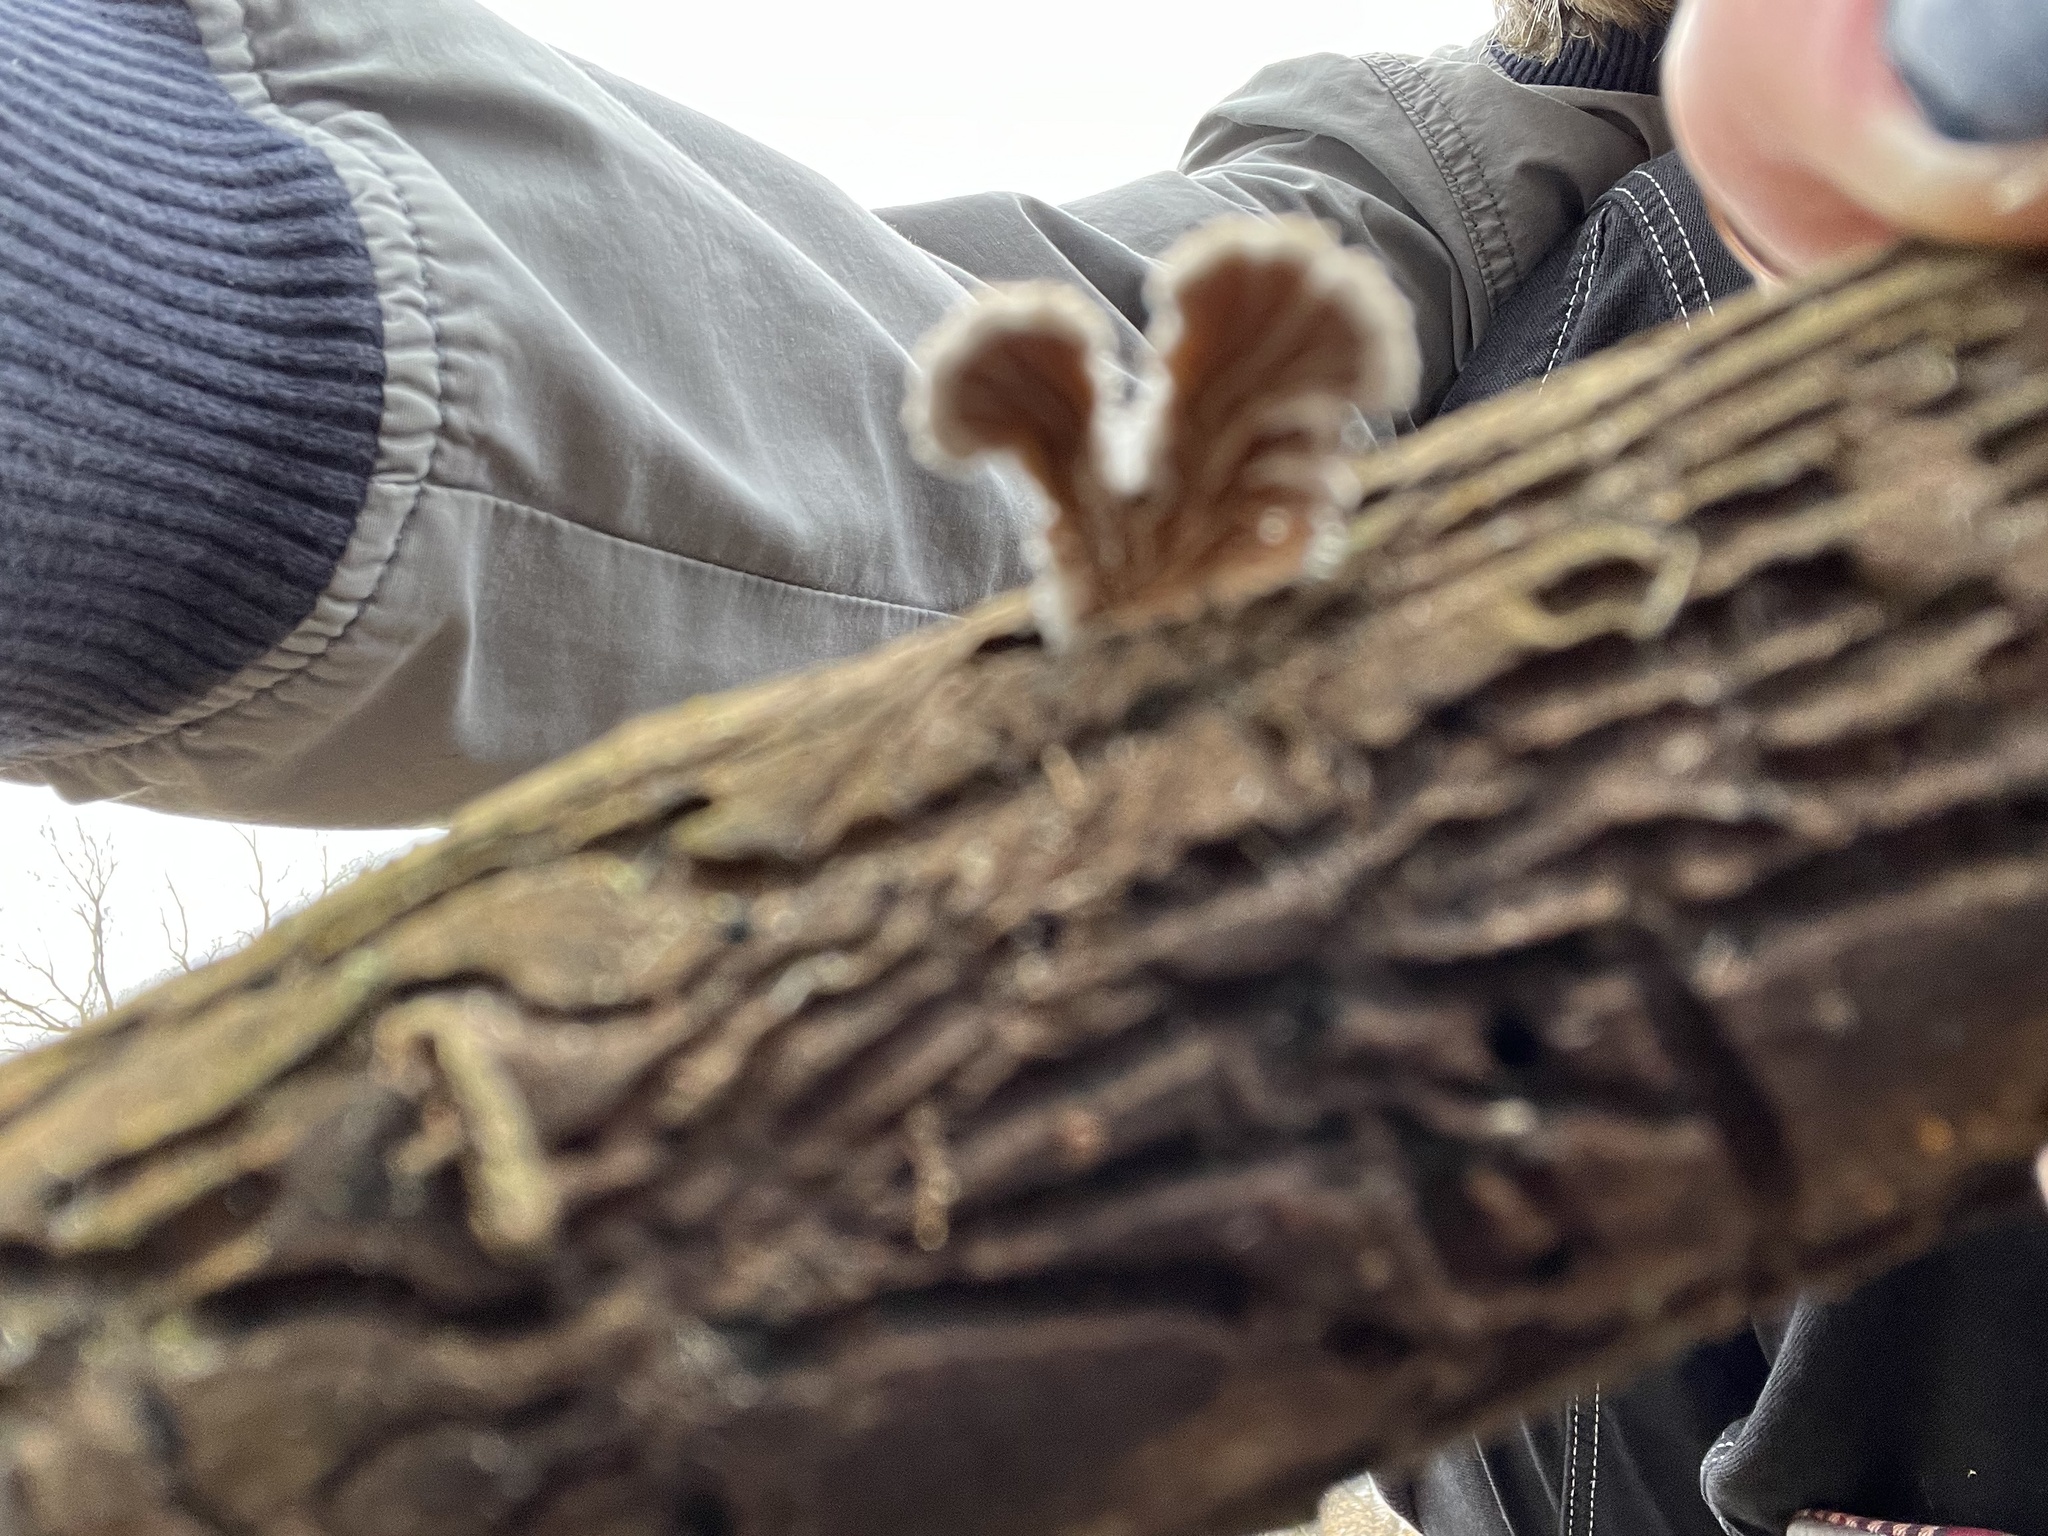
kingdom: Fungi
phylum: Basidiomycota
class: Agaricomycetes
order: Agaricales
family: Schizophyllaceae
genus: Schizophyllum
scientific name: Schizophyllum commune
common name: Common porecrust
